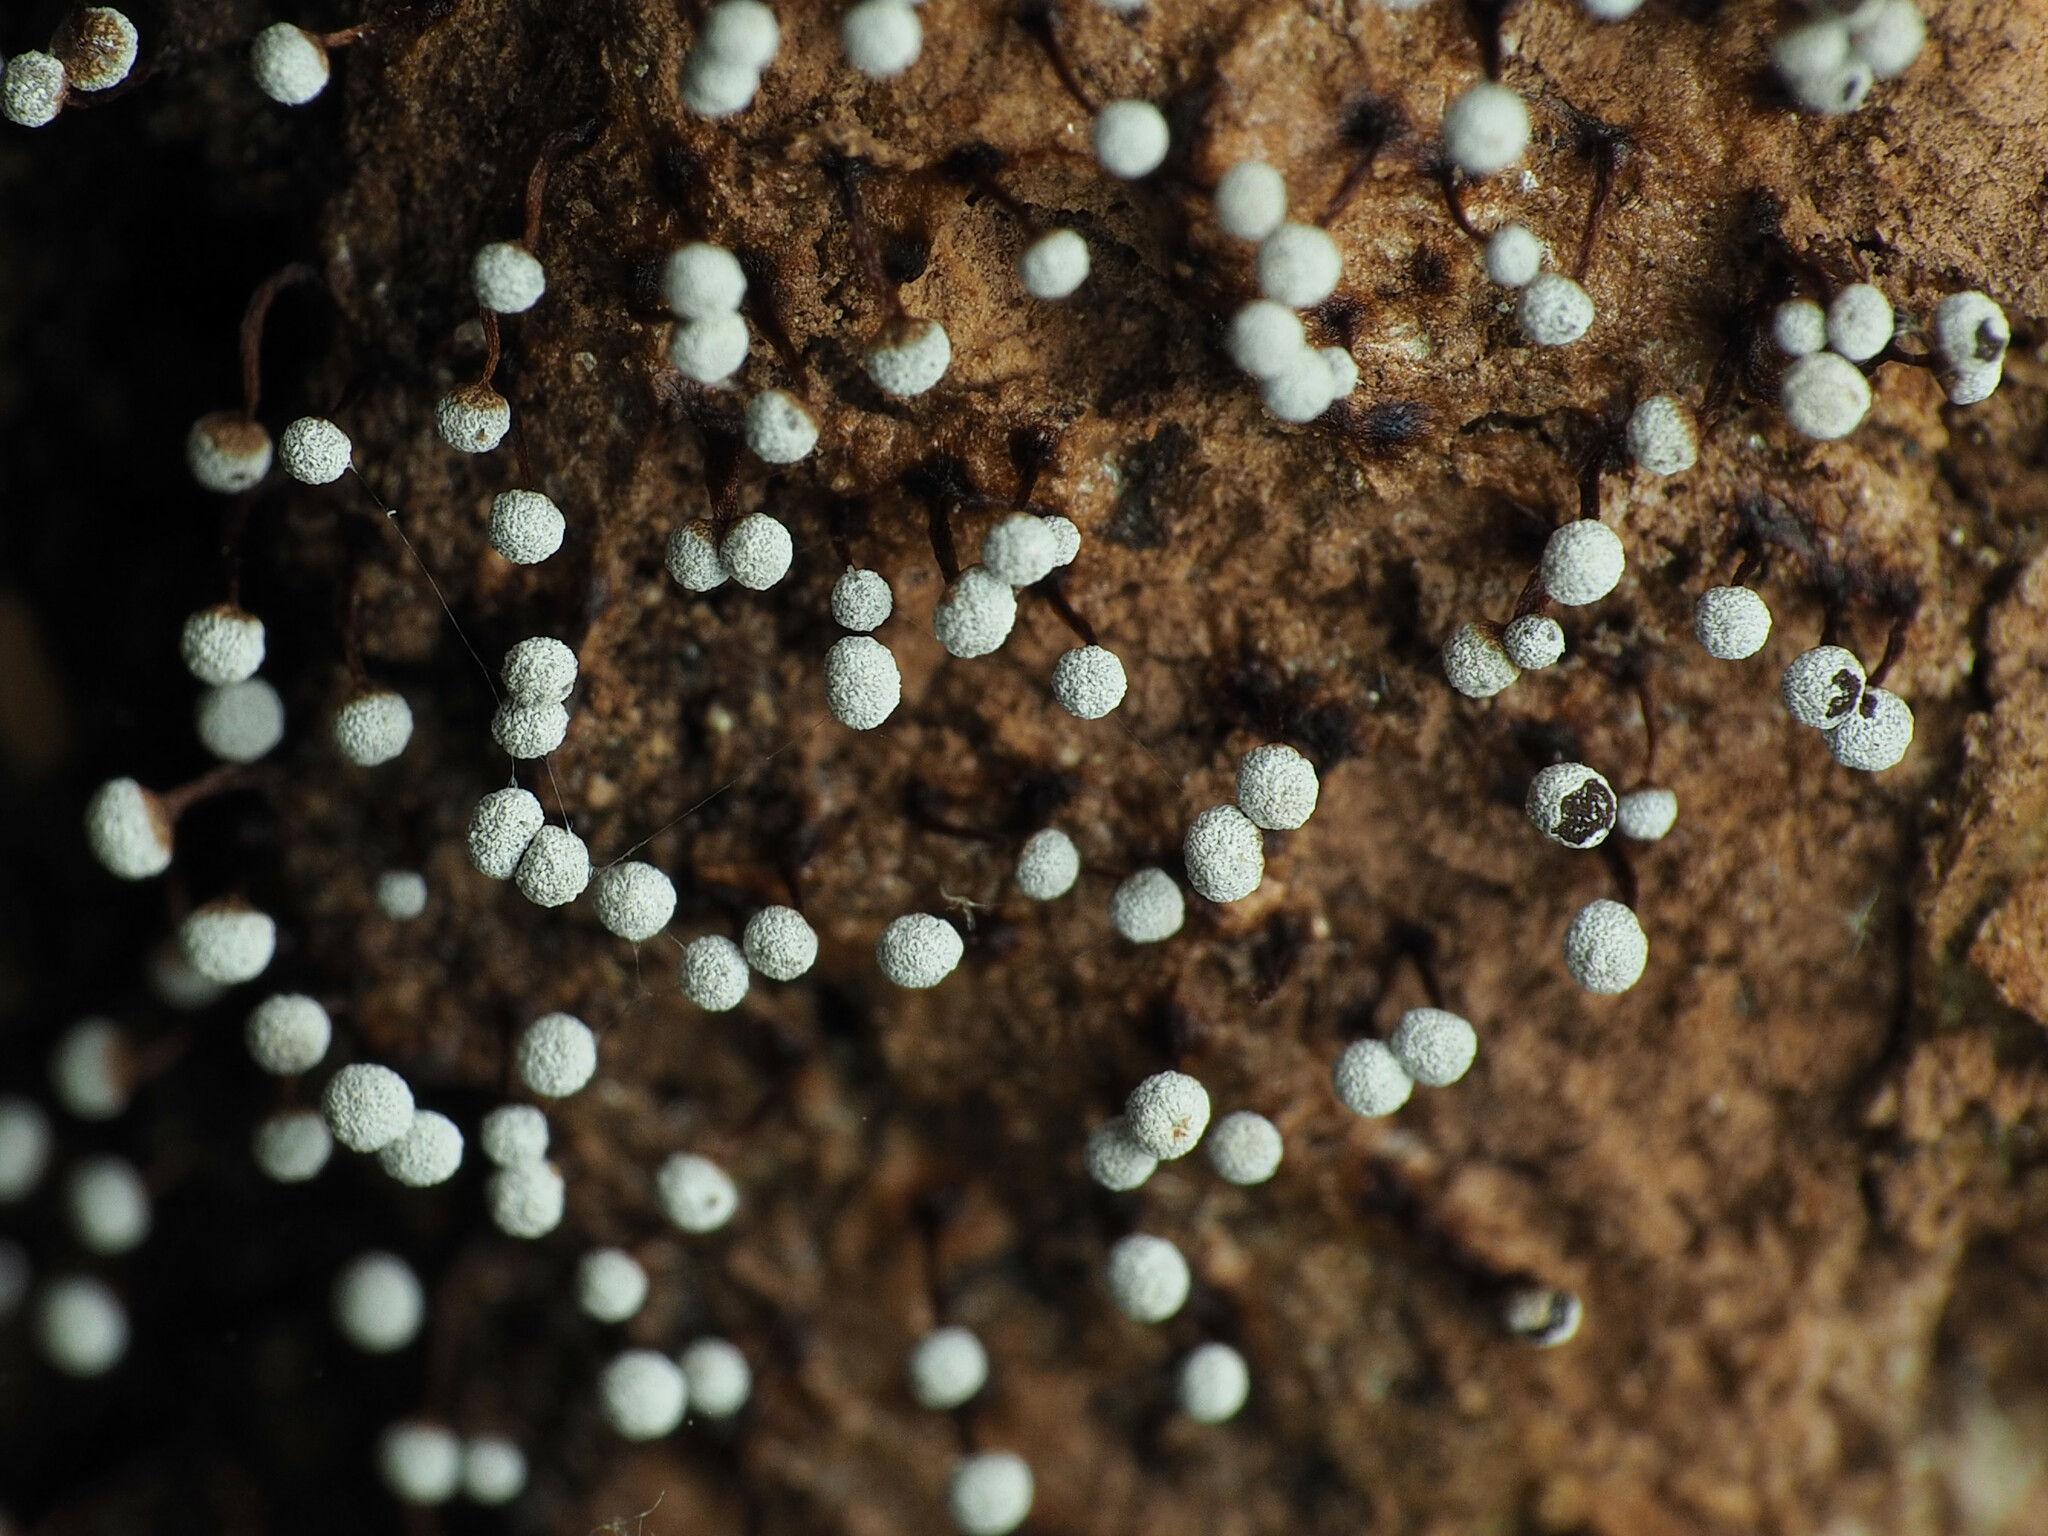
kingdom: Protozoa
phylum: Mycetozoa
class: Myxomycetes
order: Physarales
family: Physaraceae
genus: Physarum
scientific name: Physarum pusillum
